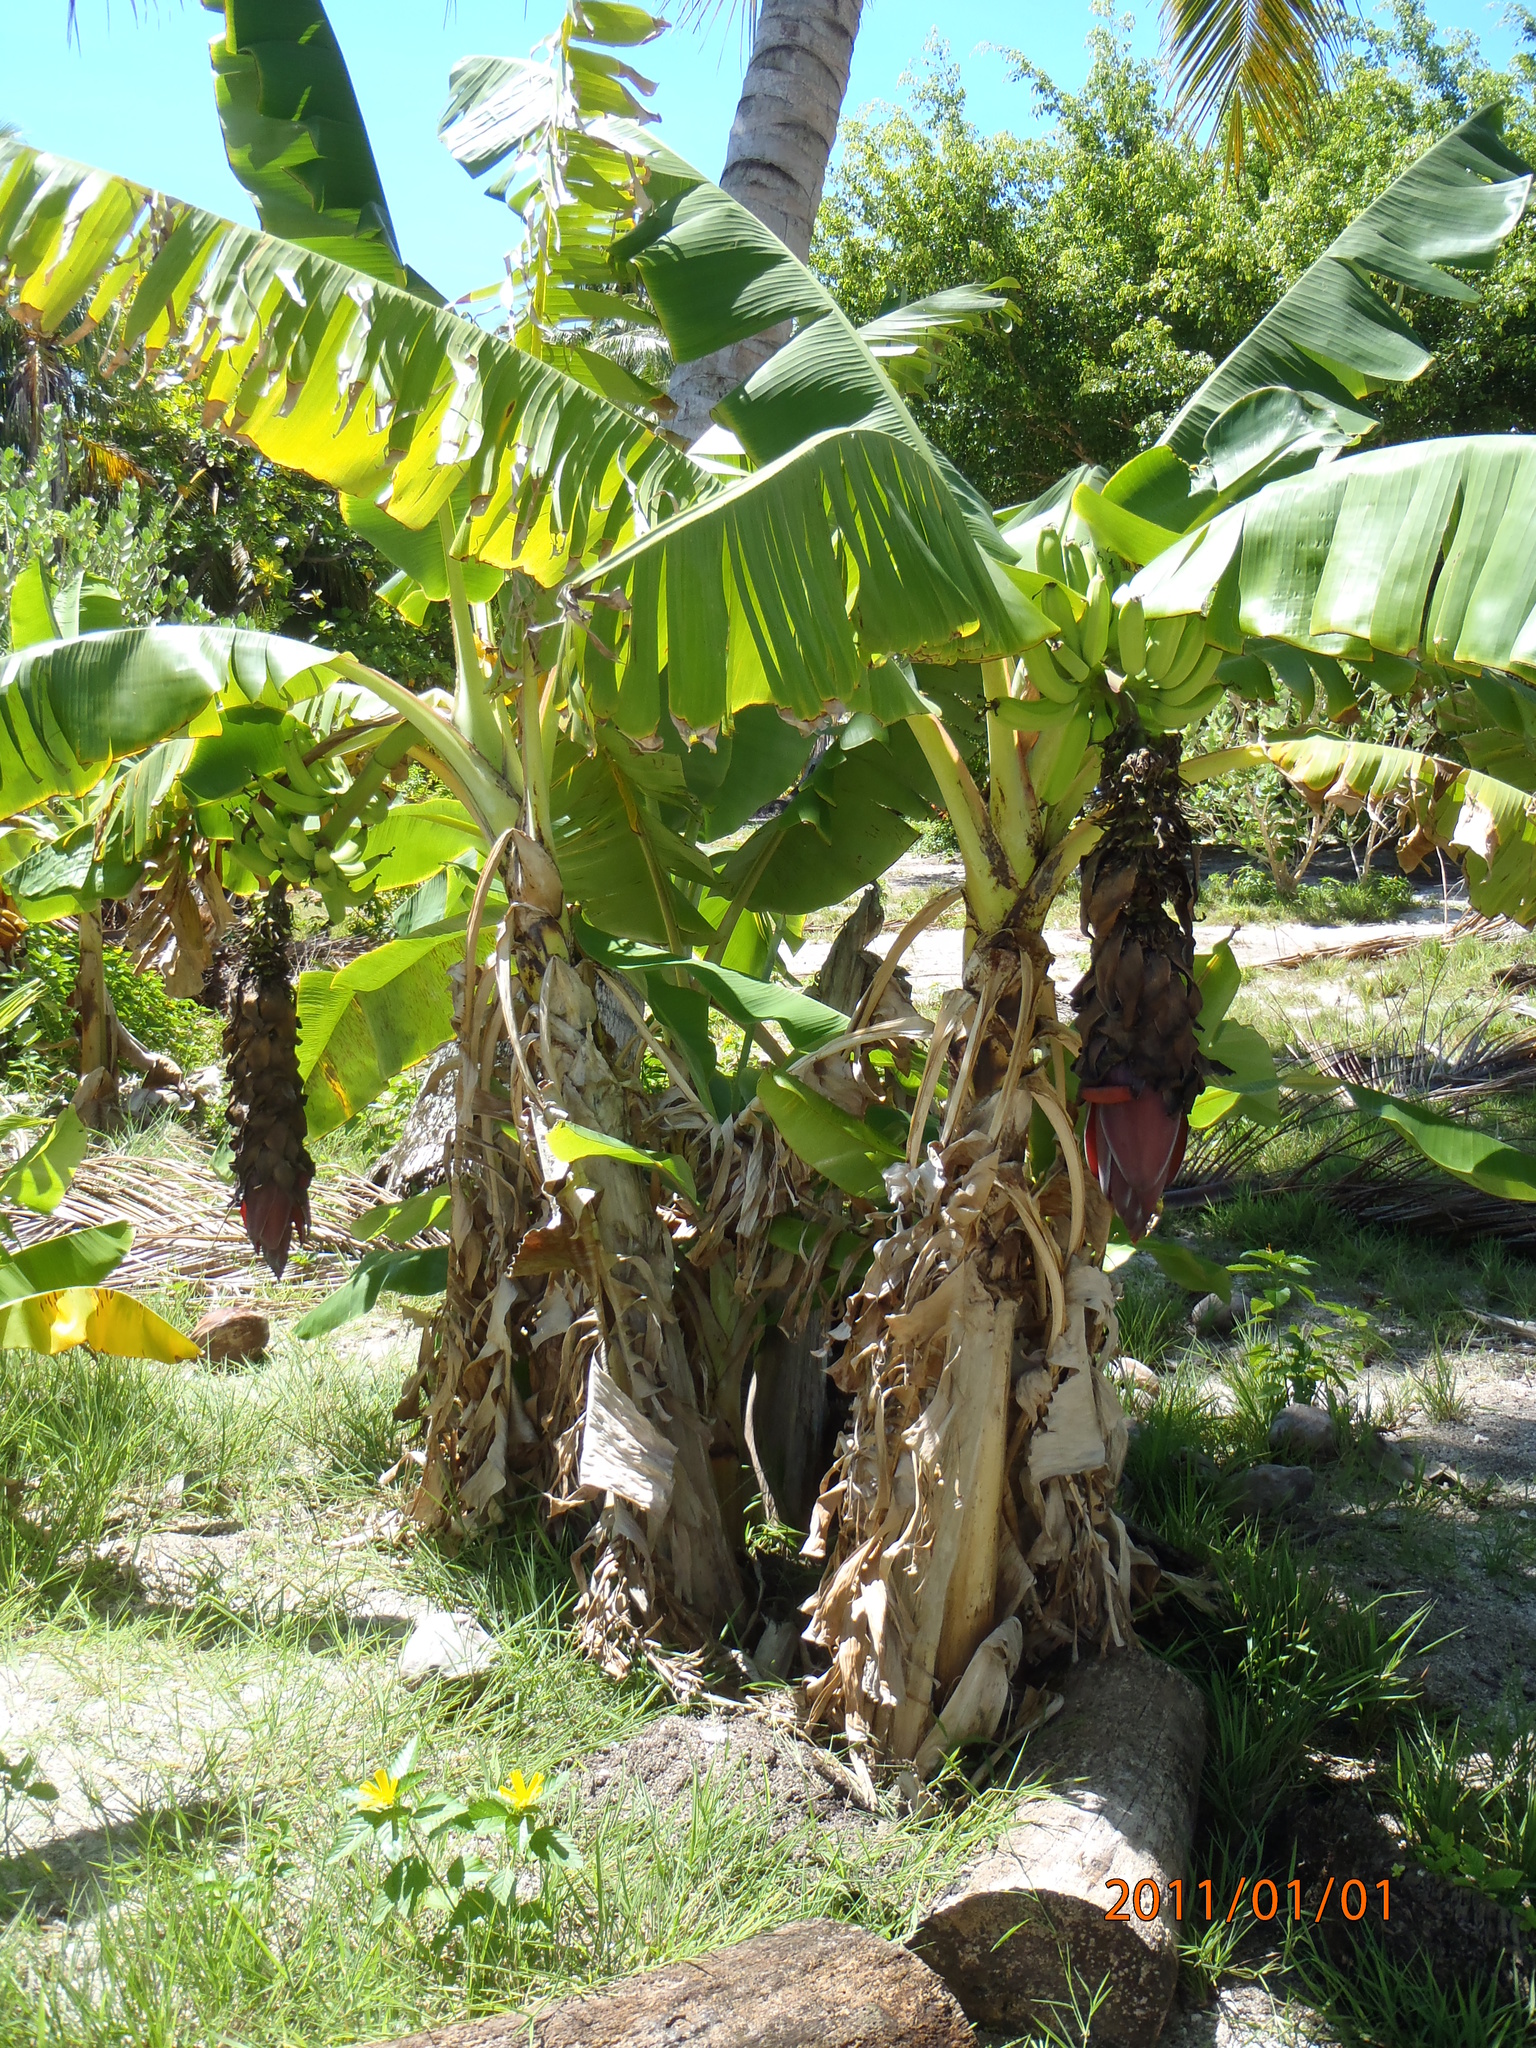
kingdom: Plantae
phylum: Tracheophyta
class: Liliopsida
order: Zingiberales
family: Musaceae
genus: Musa
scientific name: Musa acuminata
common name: Edible banana
